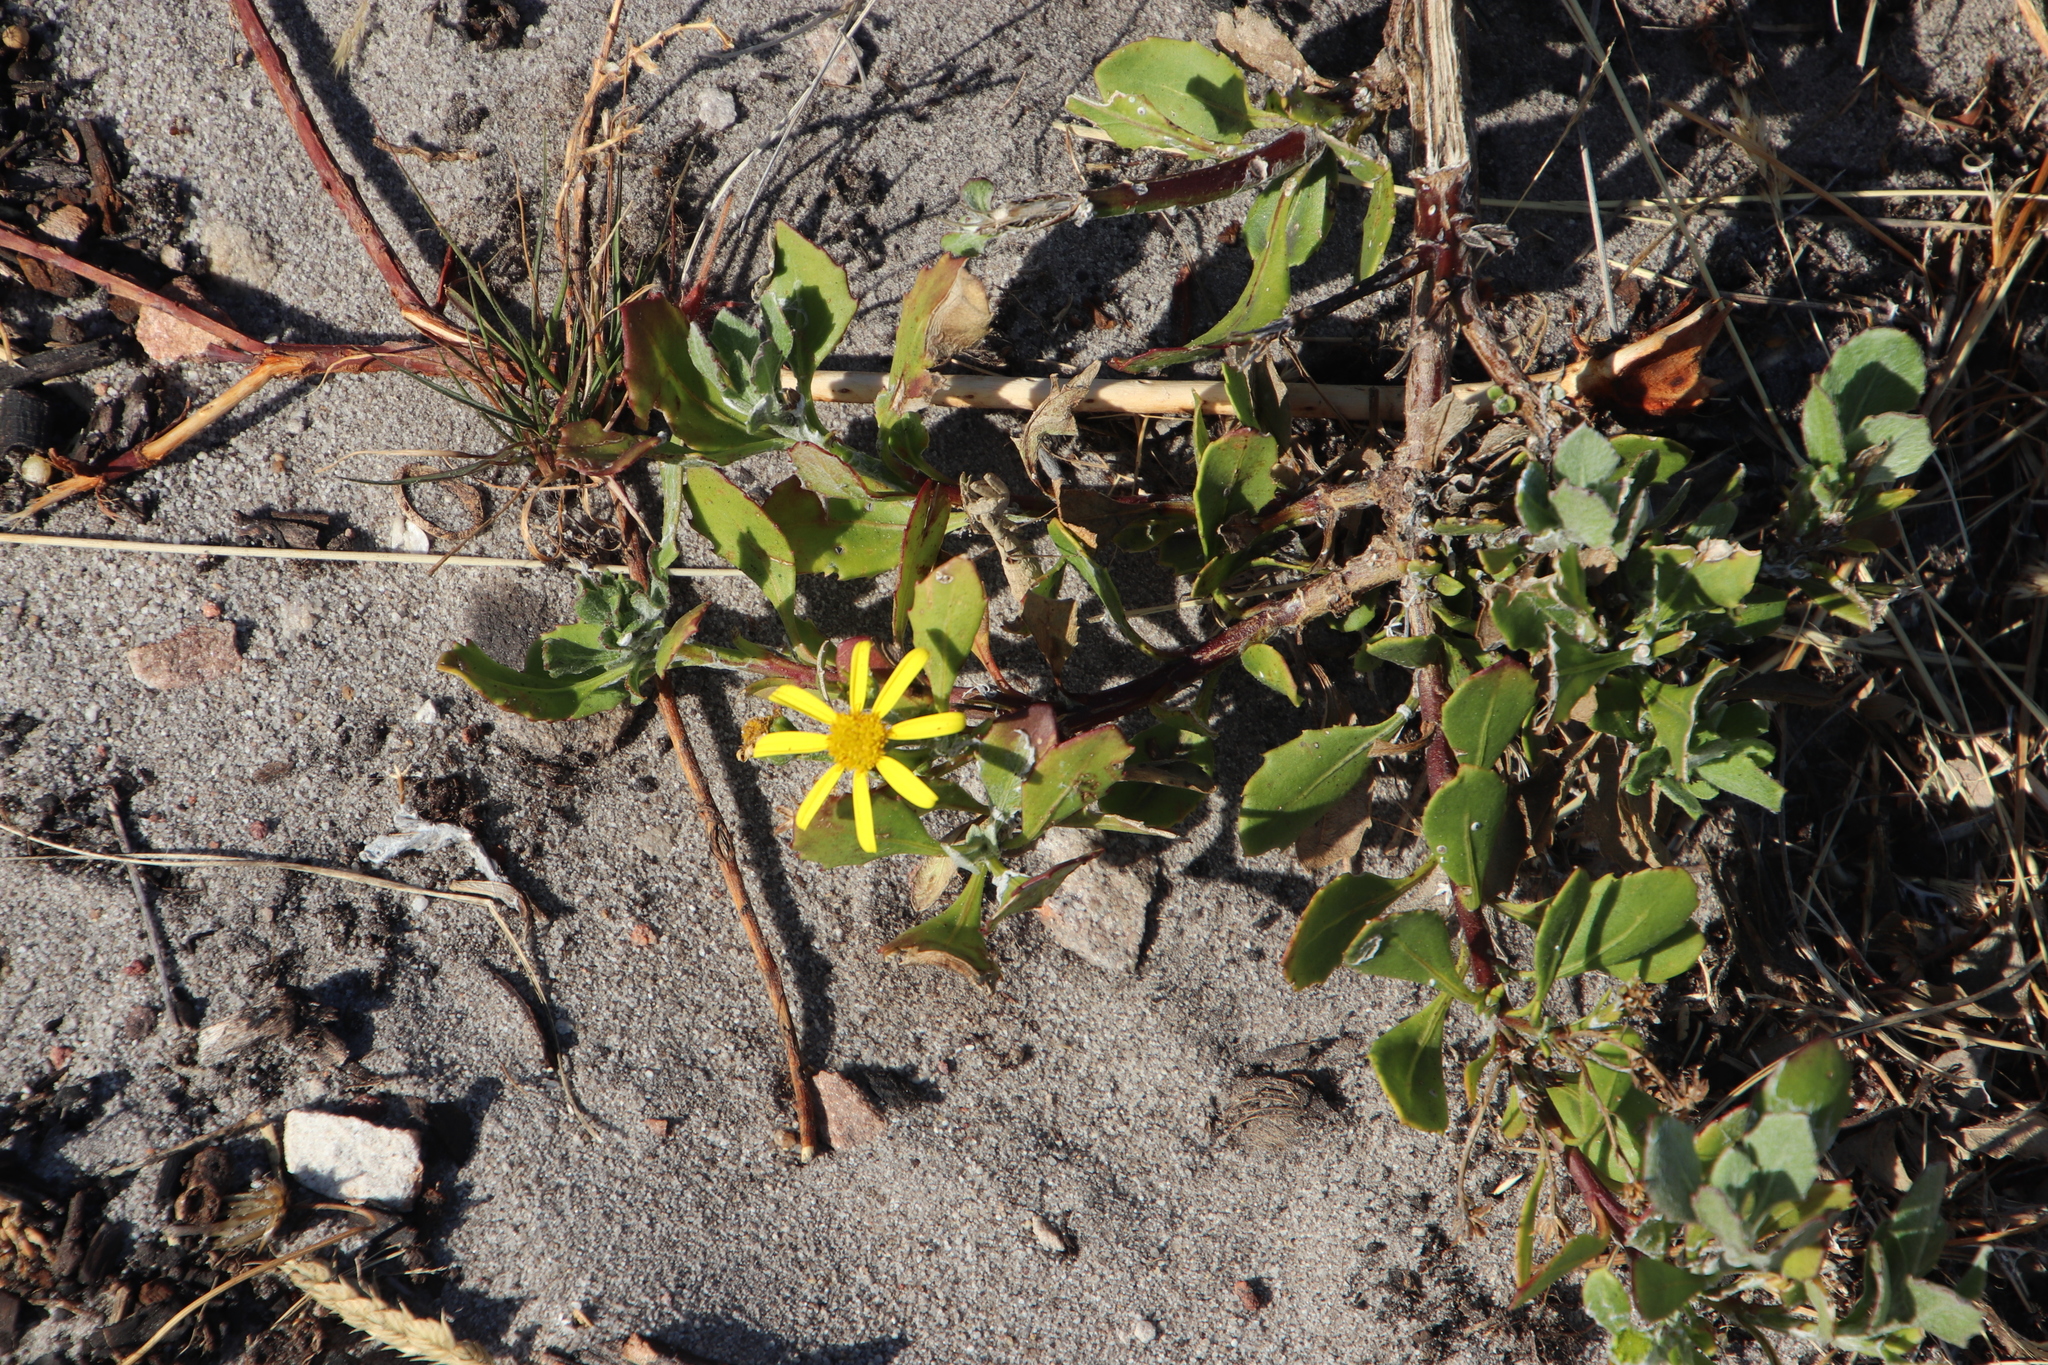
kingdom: Plantae
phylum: Tracheophyta
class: Magnoliopsida
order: Asterales
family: Asteraceae
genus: Osteospermum
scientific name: Osteospermum moniliferum
